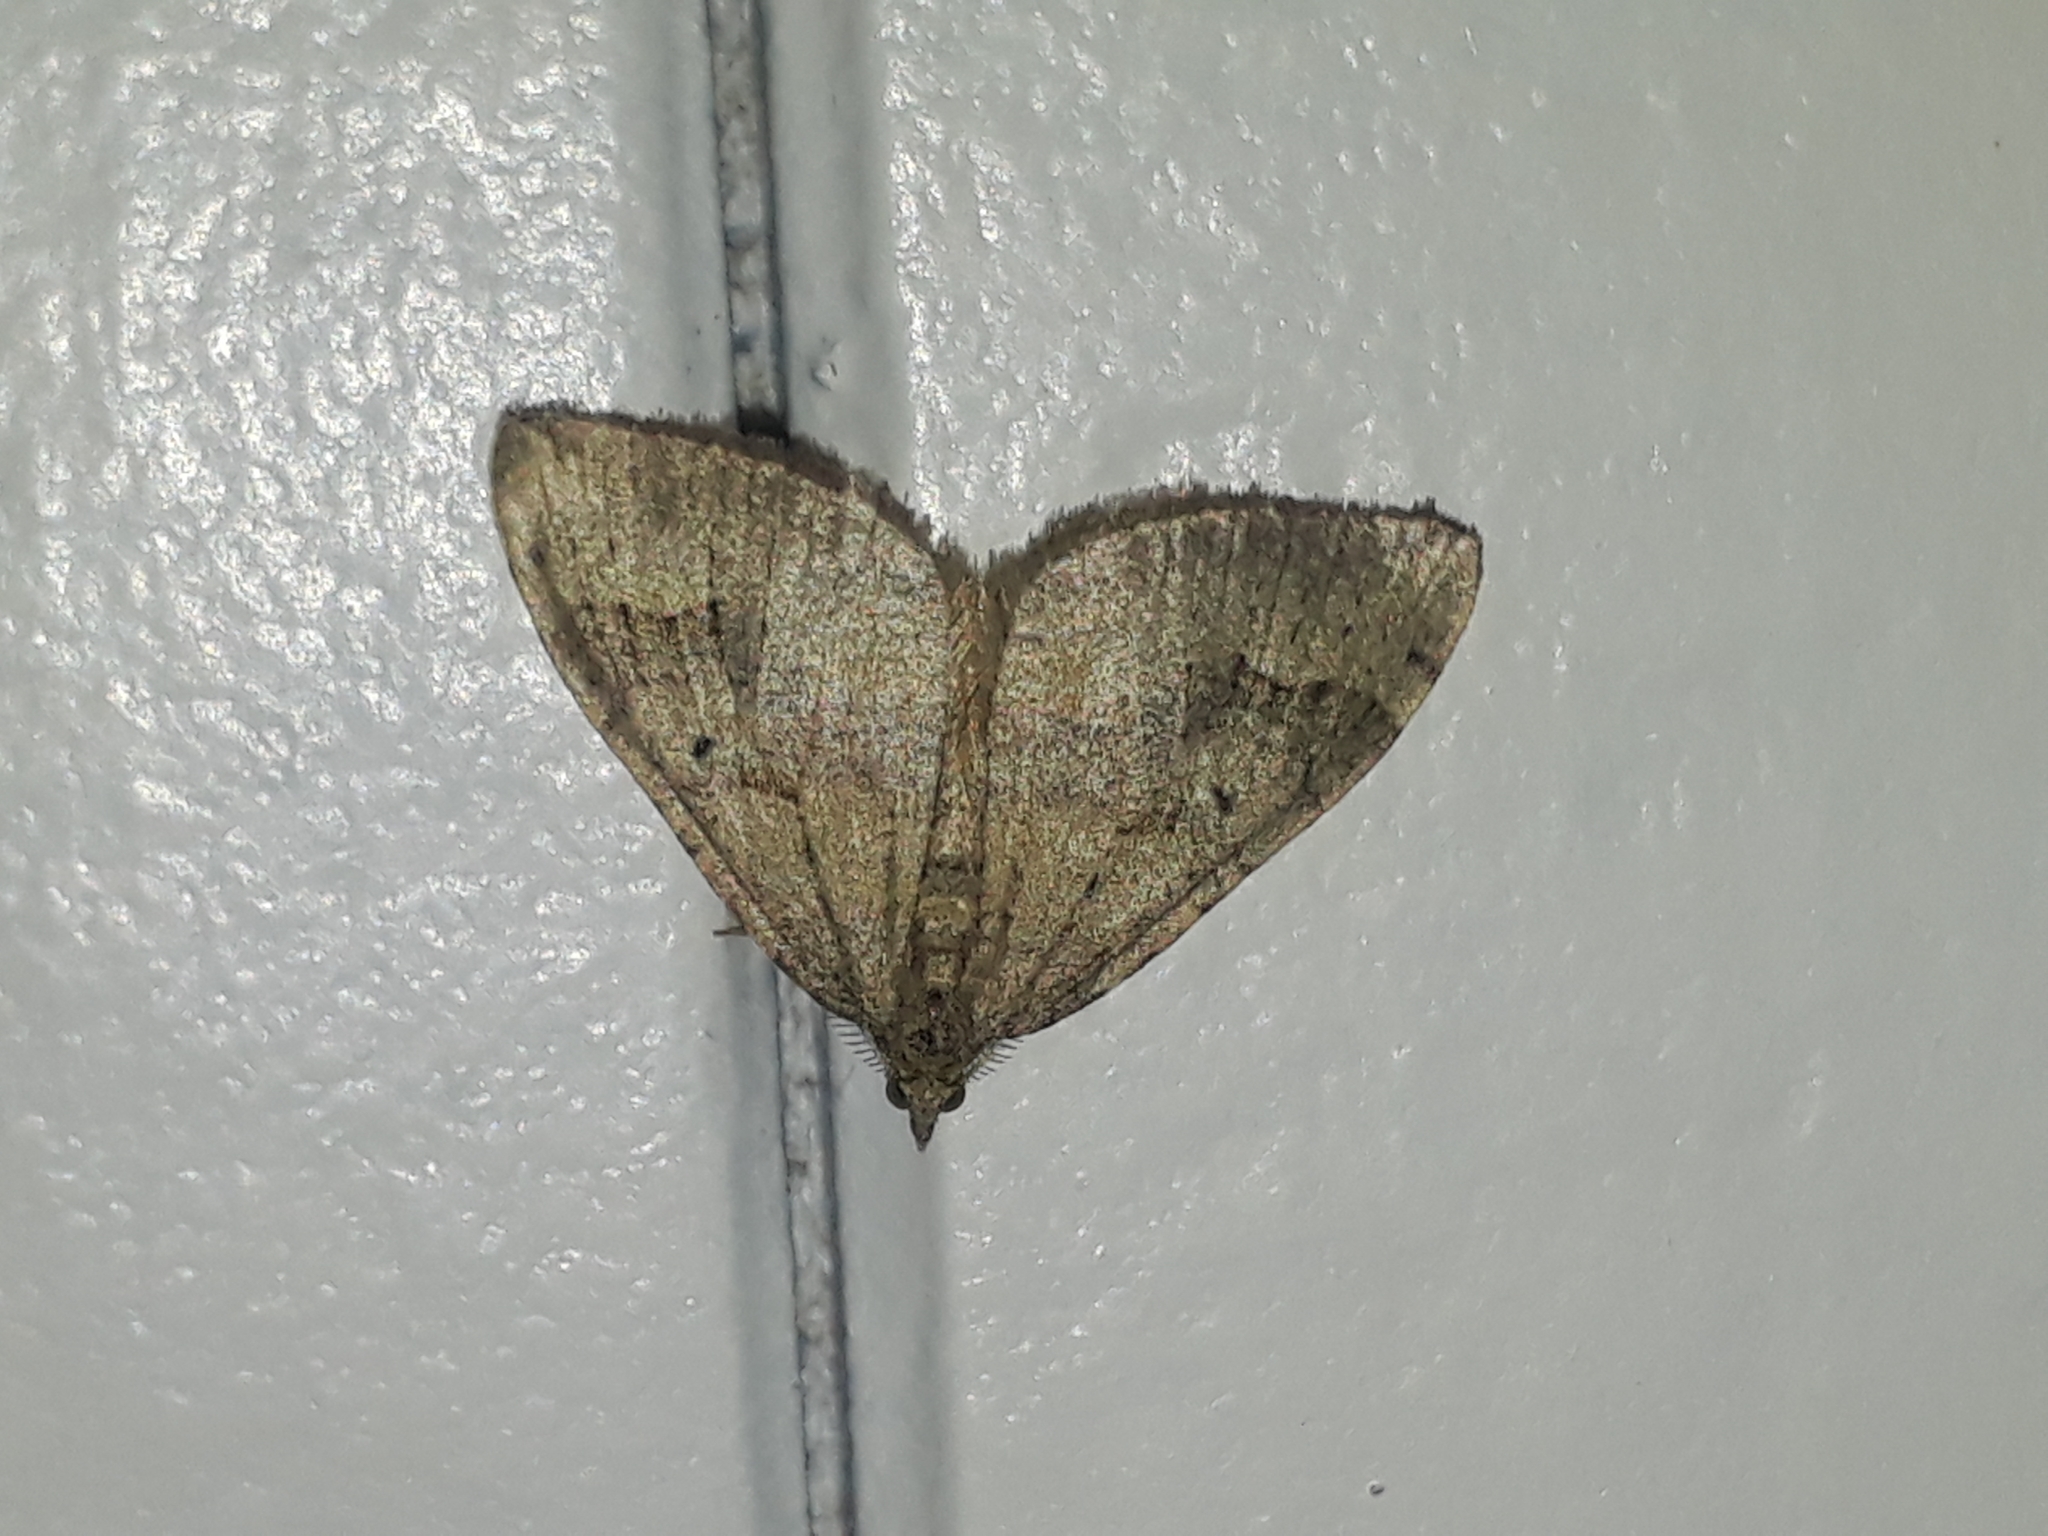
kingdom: Animalia
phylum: Arthropoda
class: Insecta
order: Lepidoptera
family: Geometridae
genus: Epyaxa
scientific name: Epyaxa rosearia
